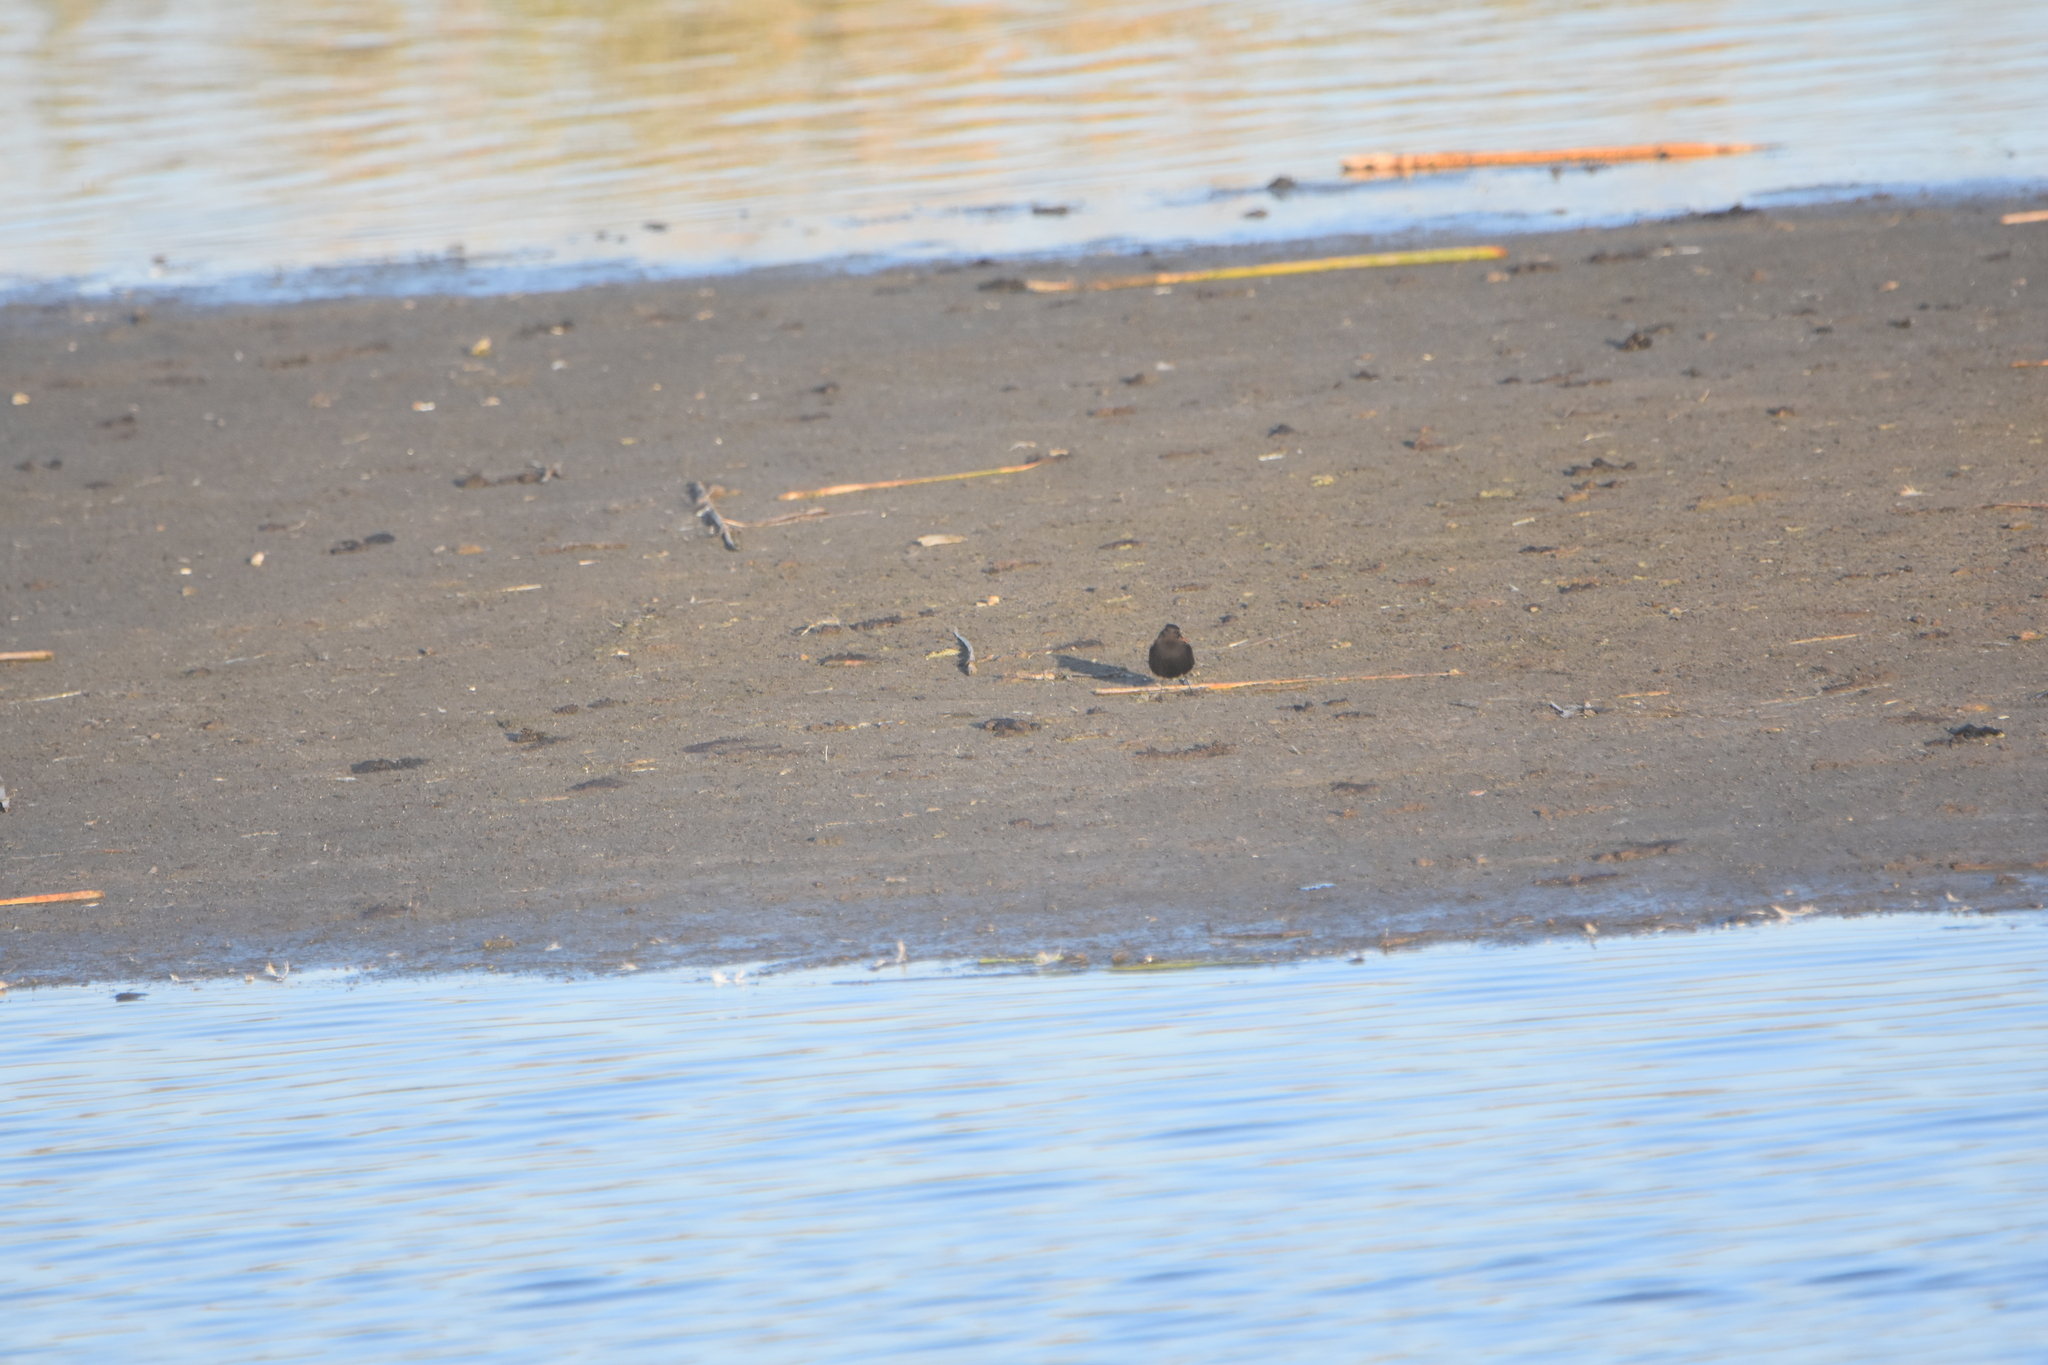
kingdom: Animalia
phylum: Chordata
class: Aves
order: Passeriformes
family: Tyrannidae
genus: Lessonia
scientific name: Lessonia rufa
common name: Austral negrito
